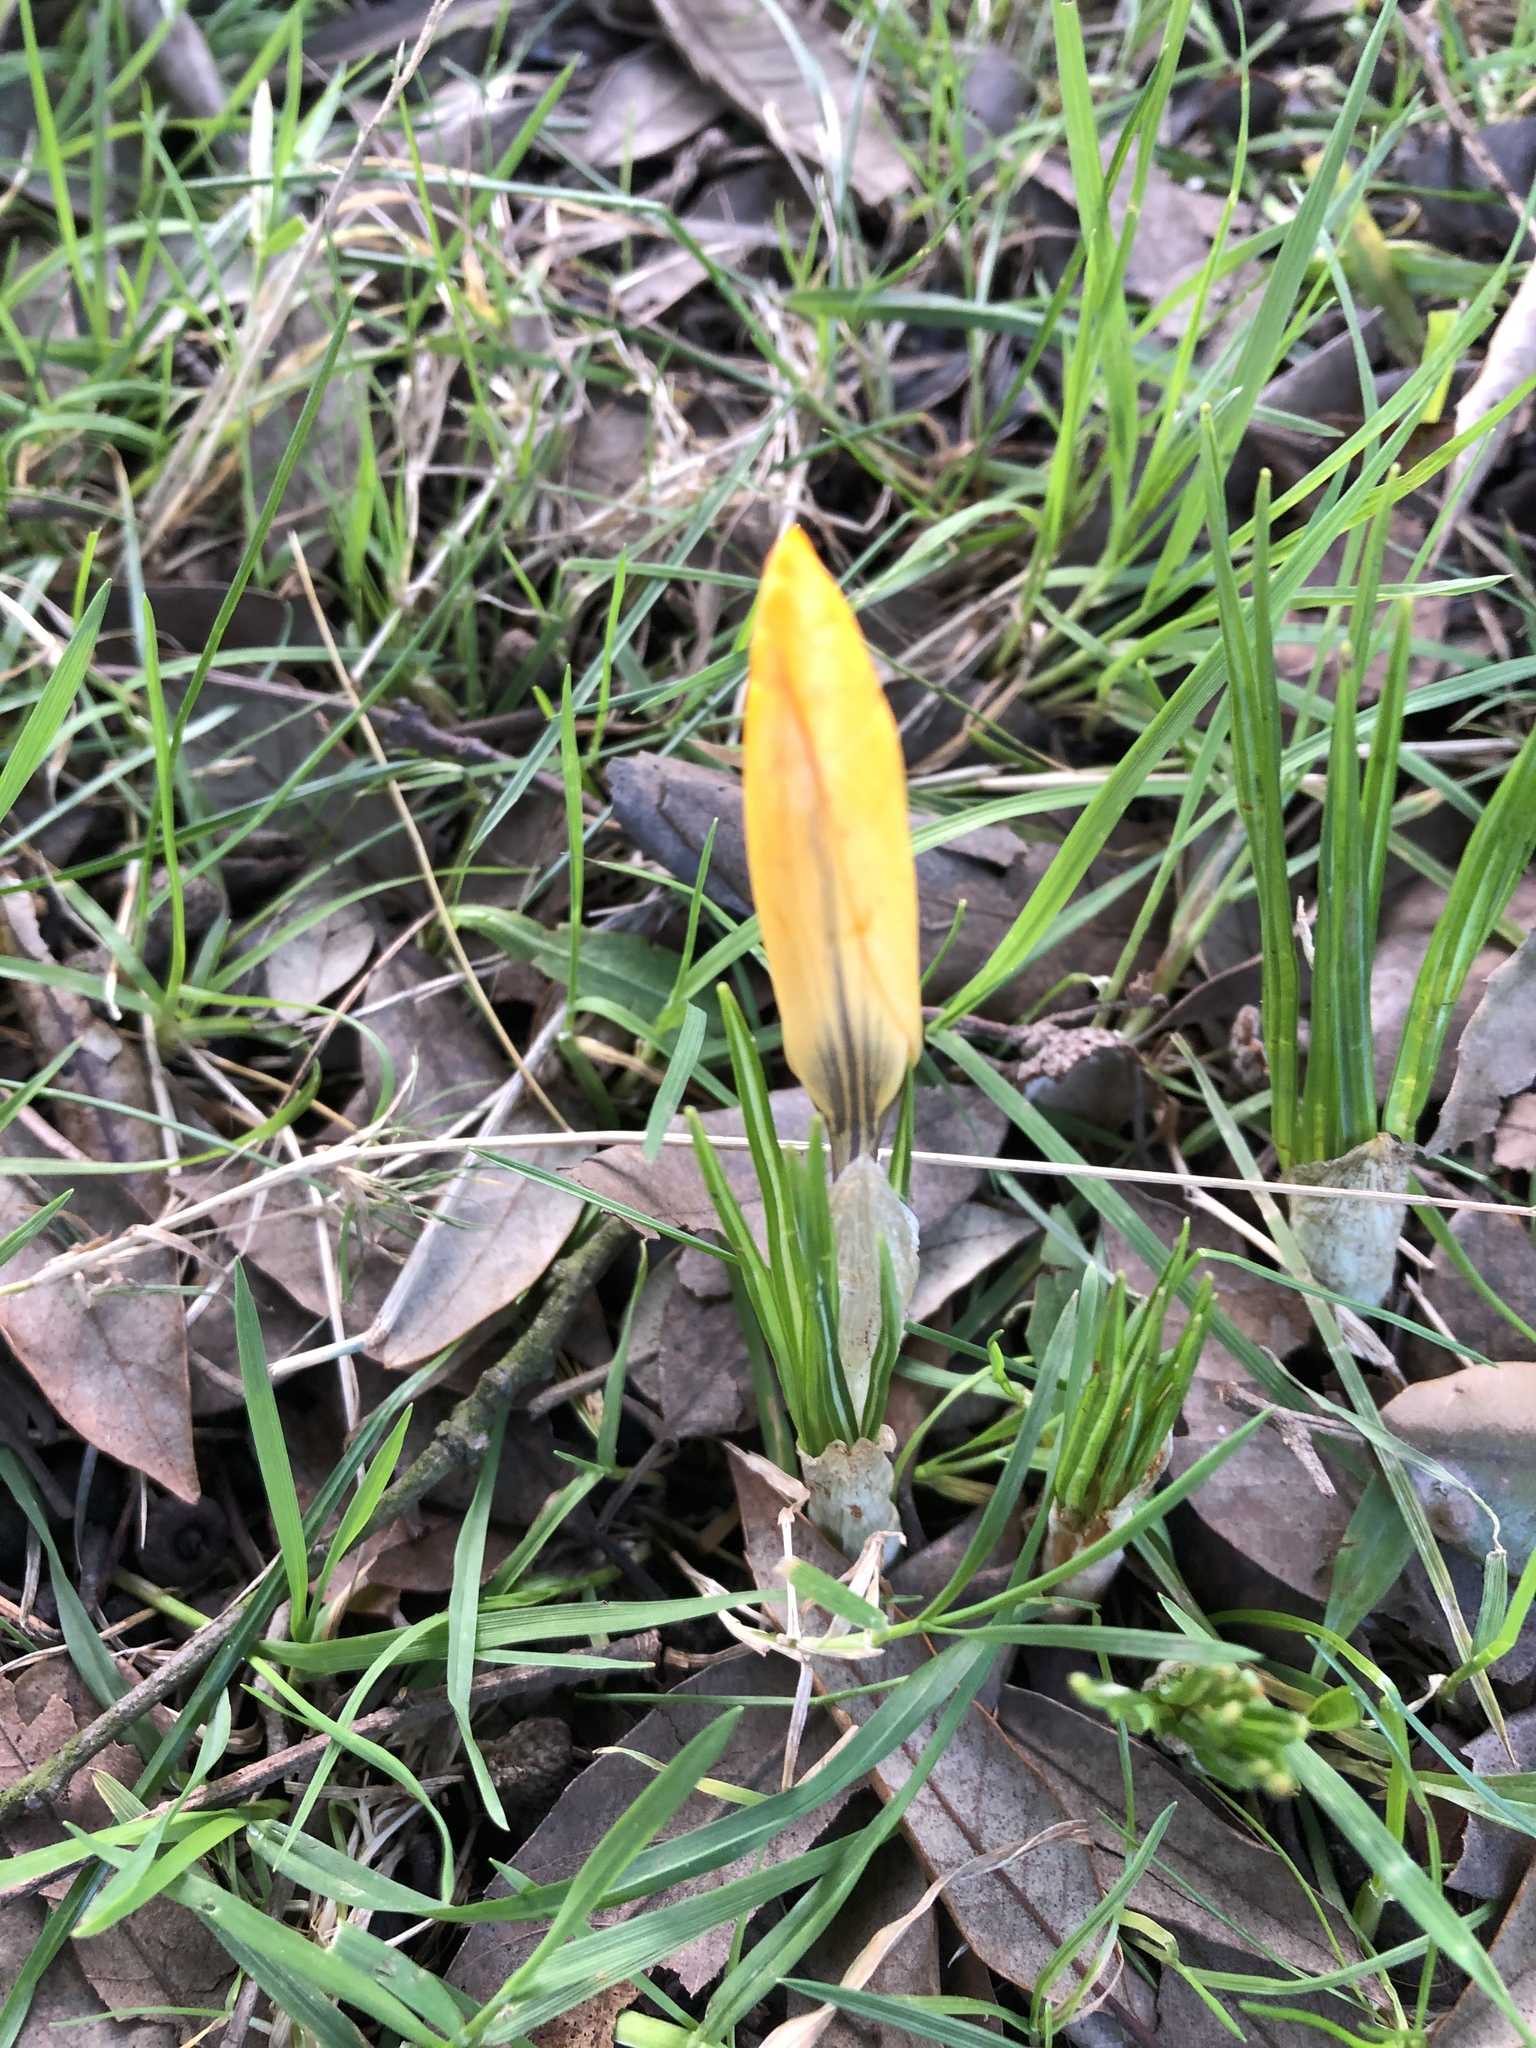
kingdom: Plantae
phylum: Tracheophyta
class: Liliopsida
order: Asparagales
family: Iridaceae
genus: Crocus
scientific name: Crocus luteus
